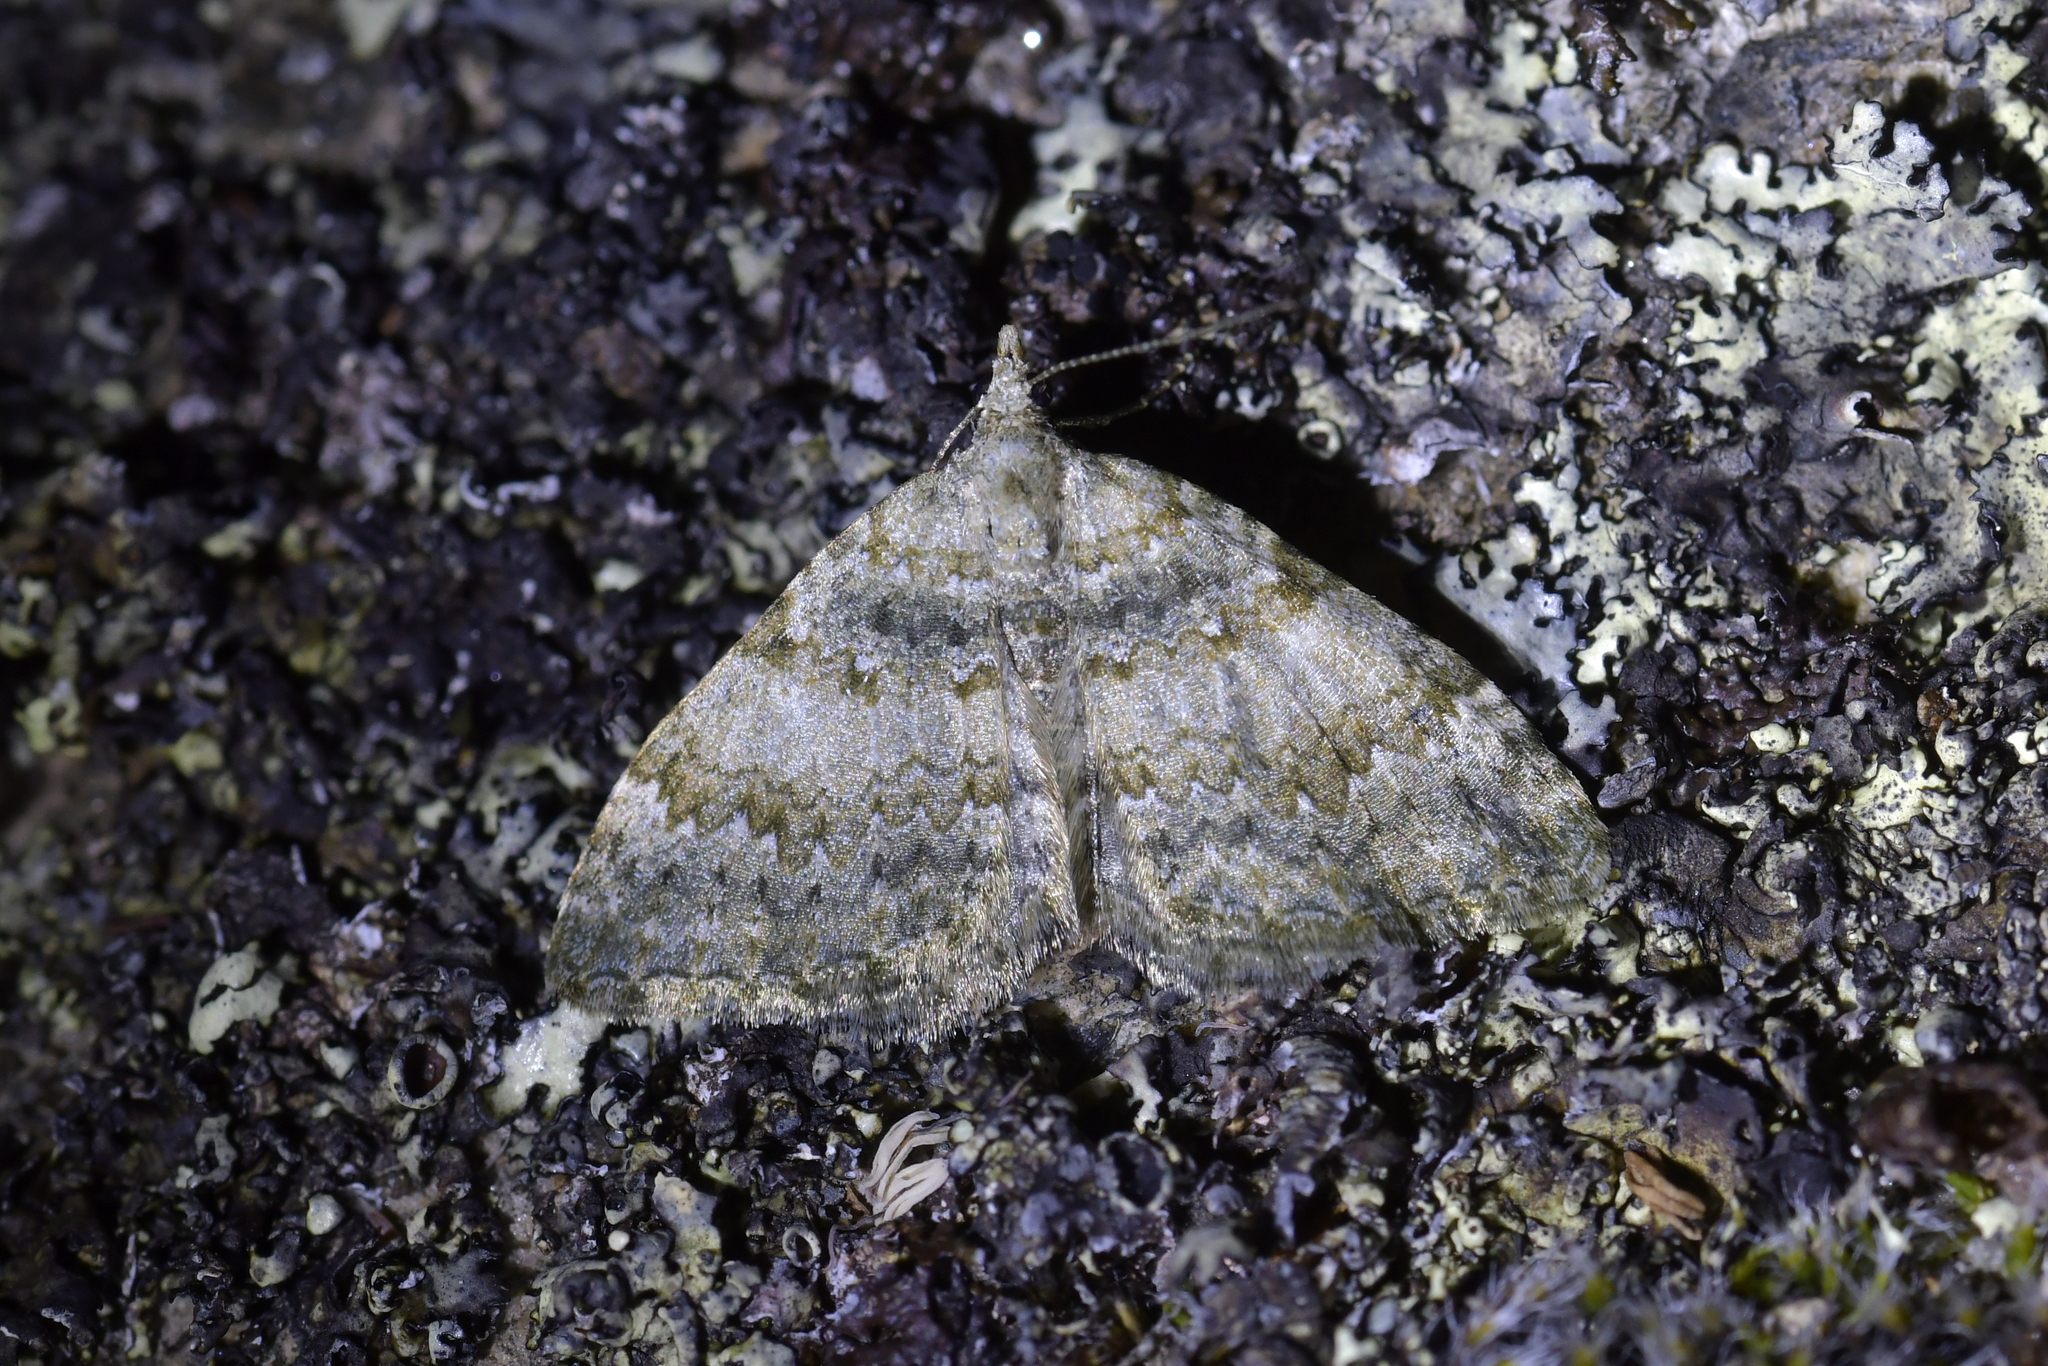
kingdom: Animalia
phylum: Arthropoda
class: Insecta
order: Lepidoptera
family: Geometridae
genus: Helastia
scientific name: Helastia christinae
